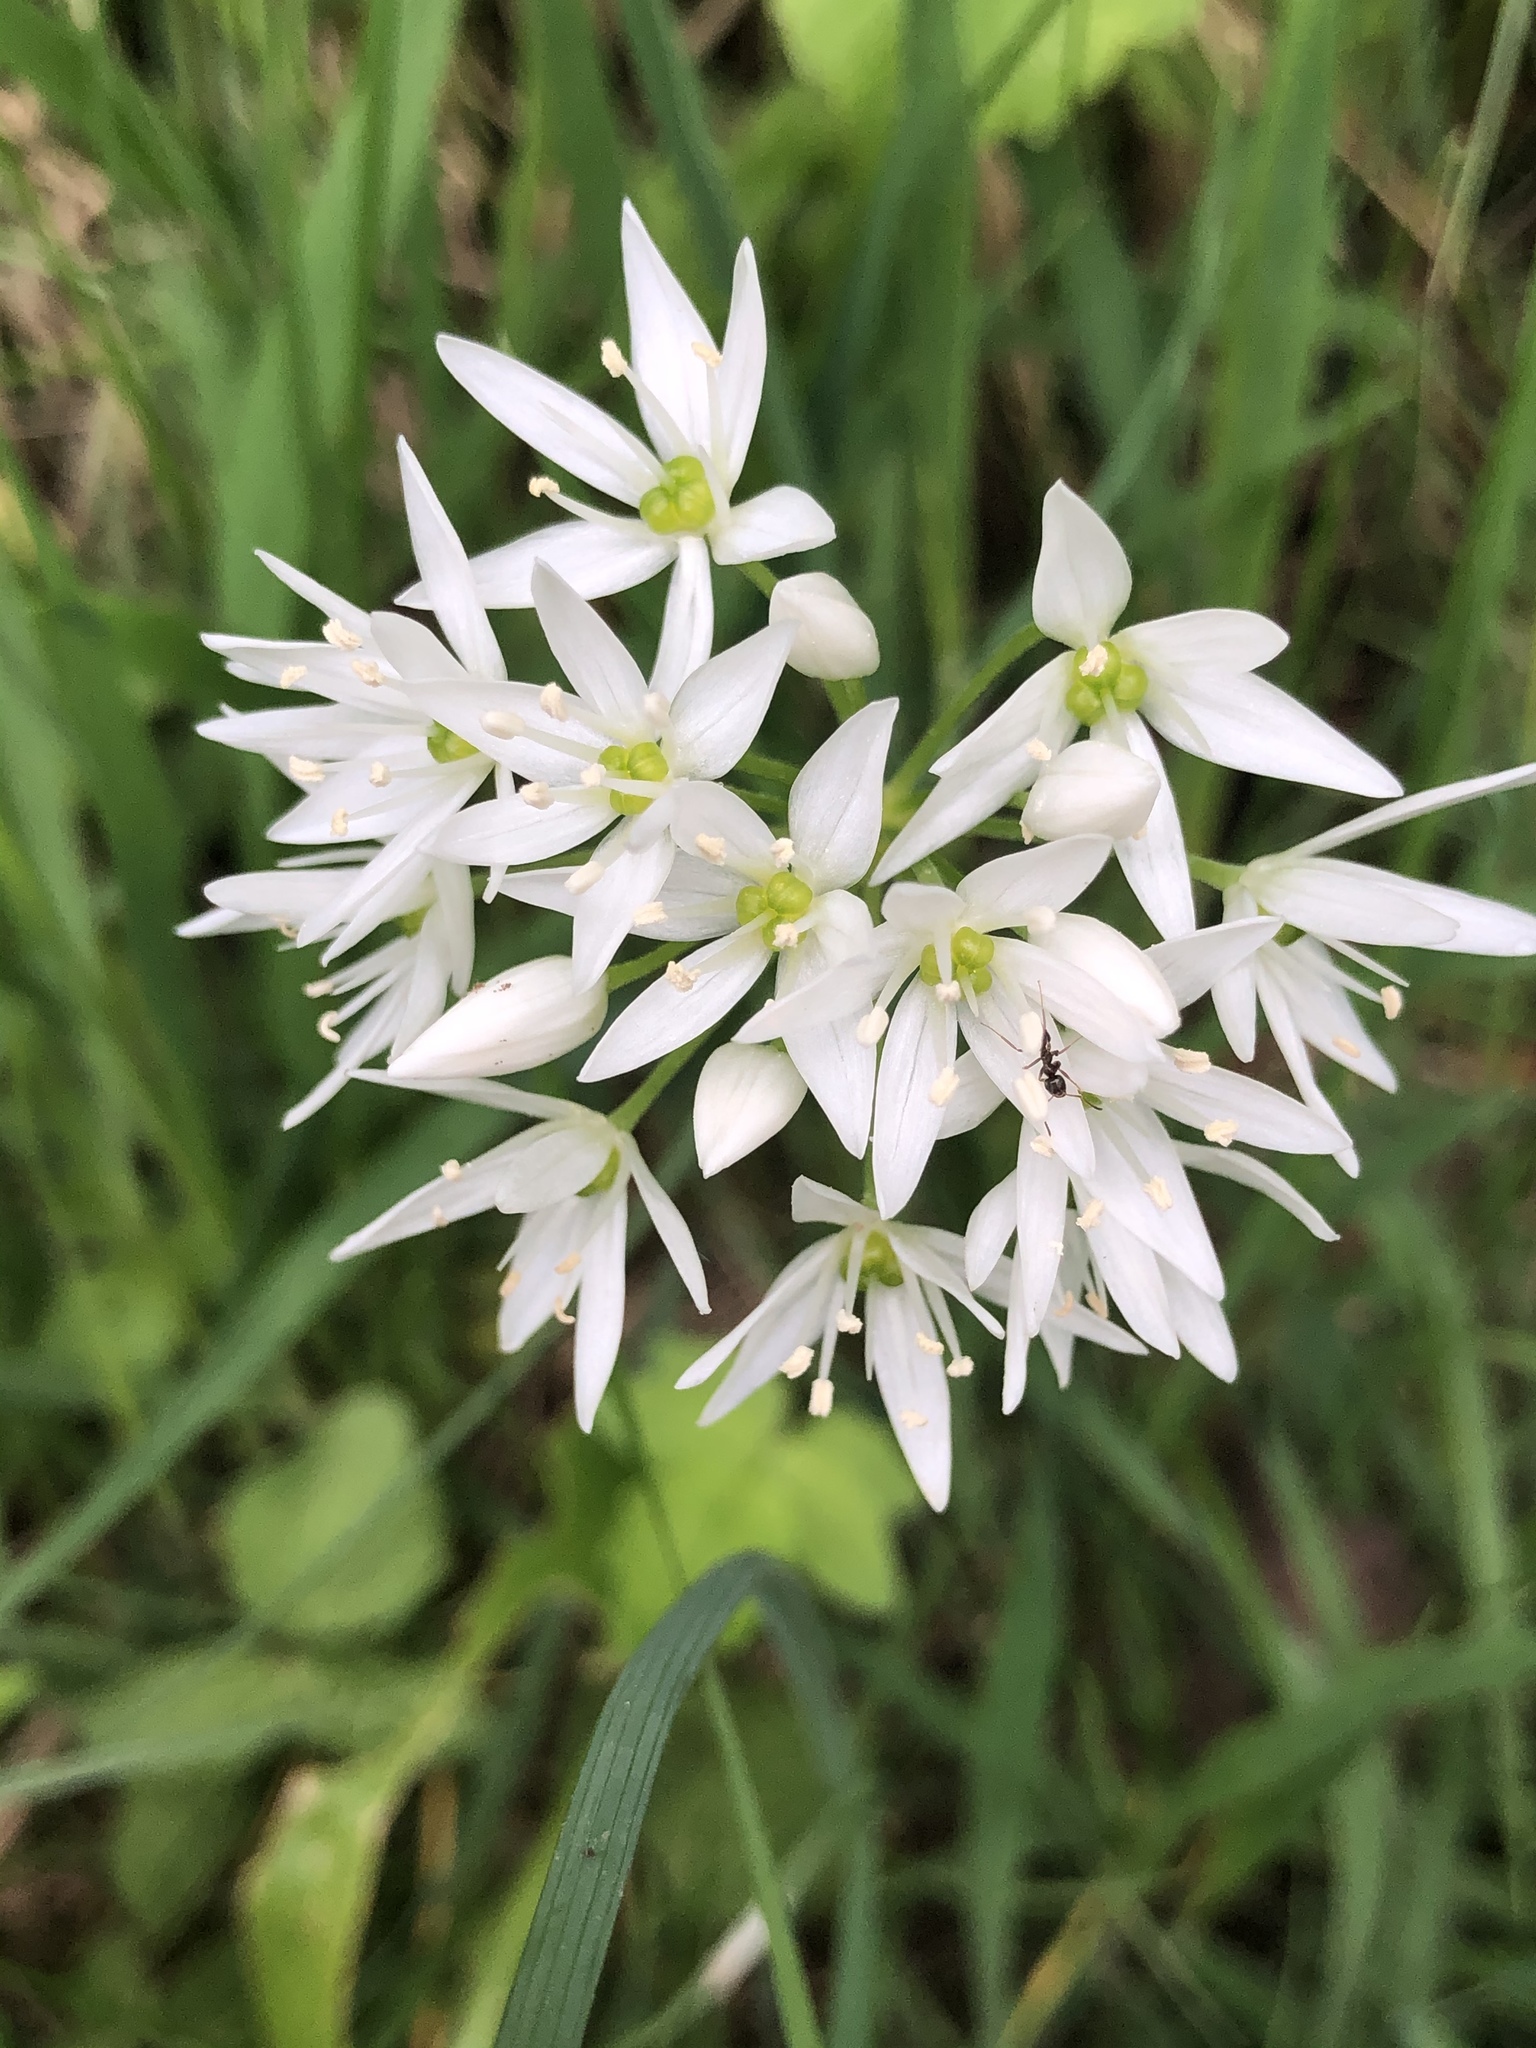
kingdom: Plantae
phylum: Tracheophyta
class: Liliopsida
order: Asparagales
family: Amaryllidaceae
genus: Allium
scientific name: Allium ursinum
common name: Ramsons
